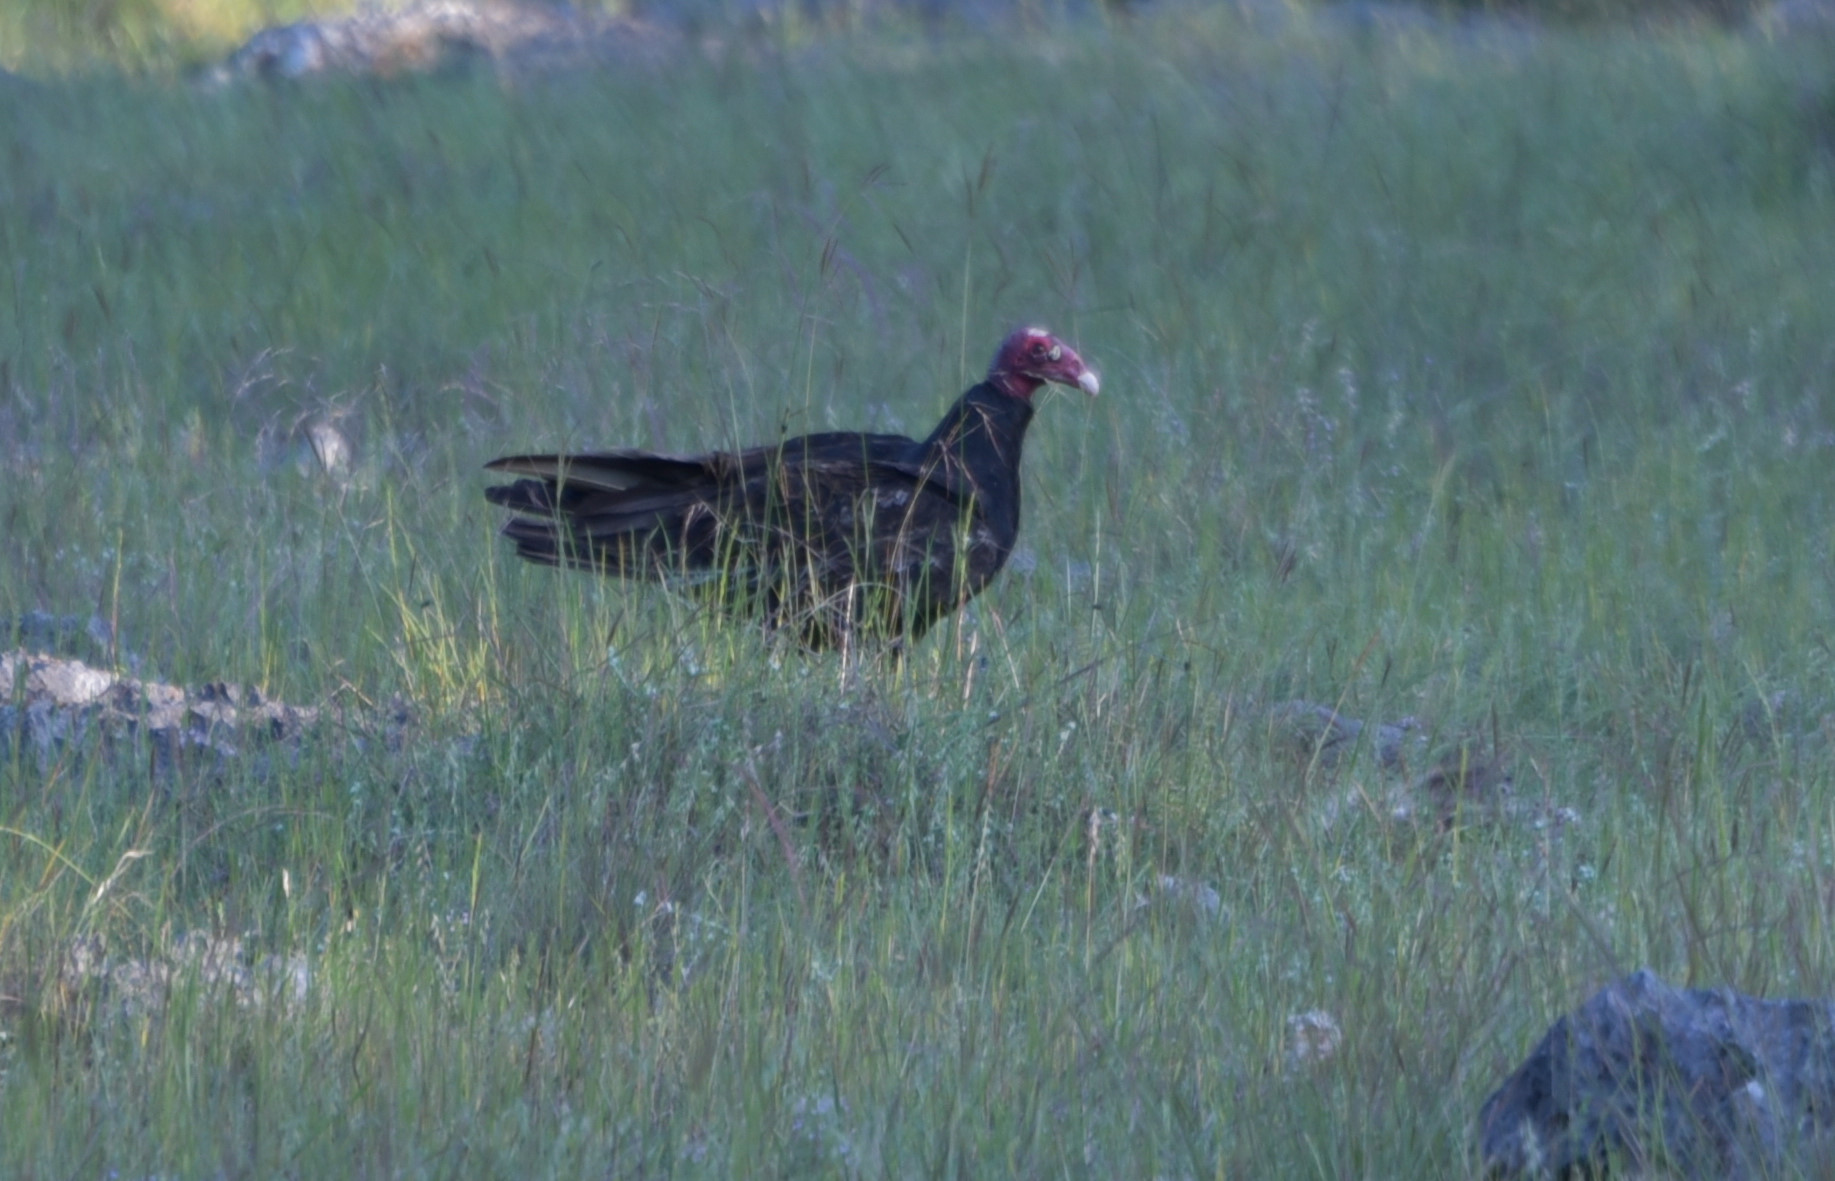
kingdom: Animalia
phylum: Chordata
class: Aves
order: Accipitriformes
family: Cathartidae
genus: Cathartes
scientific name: Cathartes aura
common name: Turkey vulture
